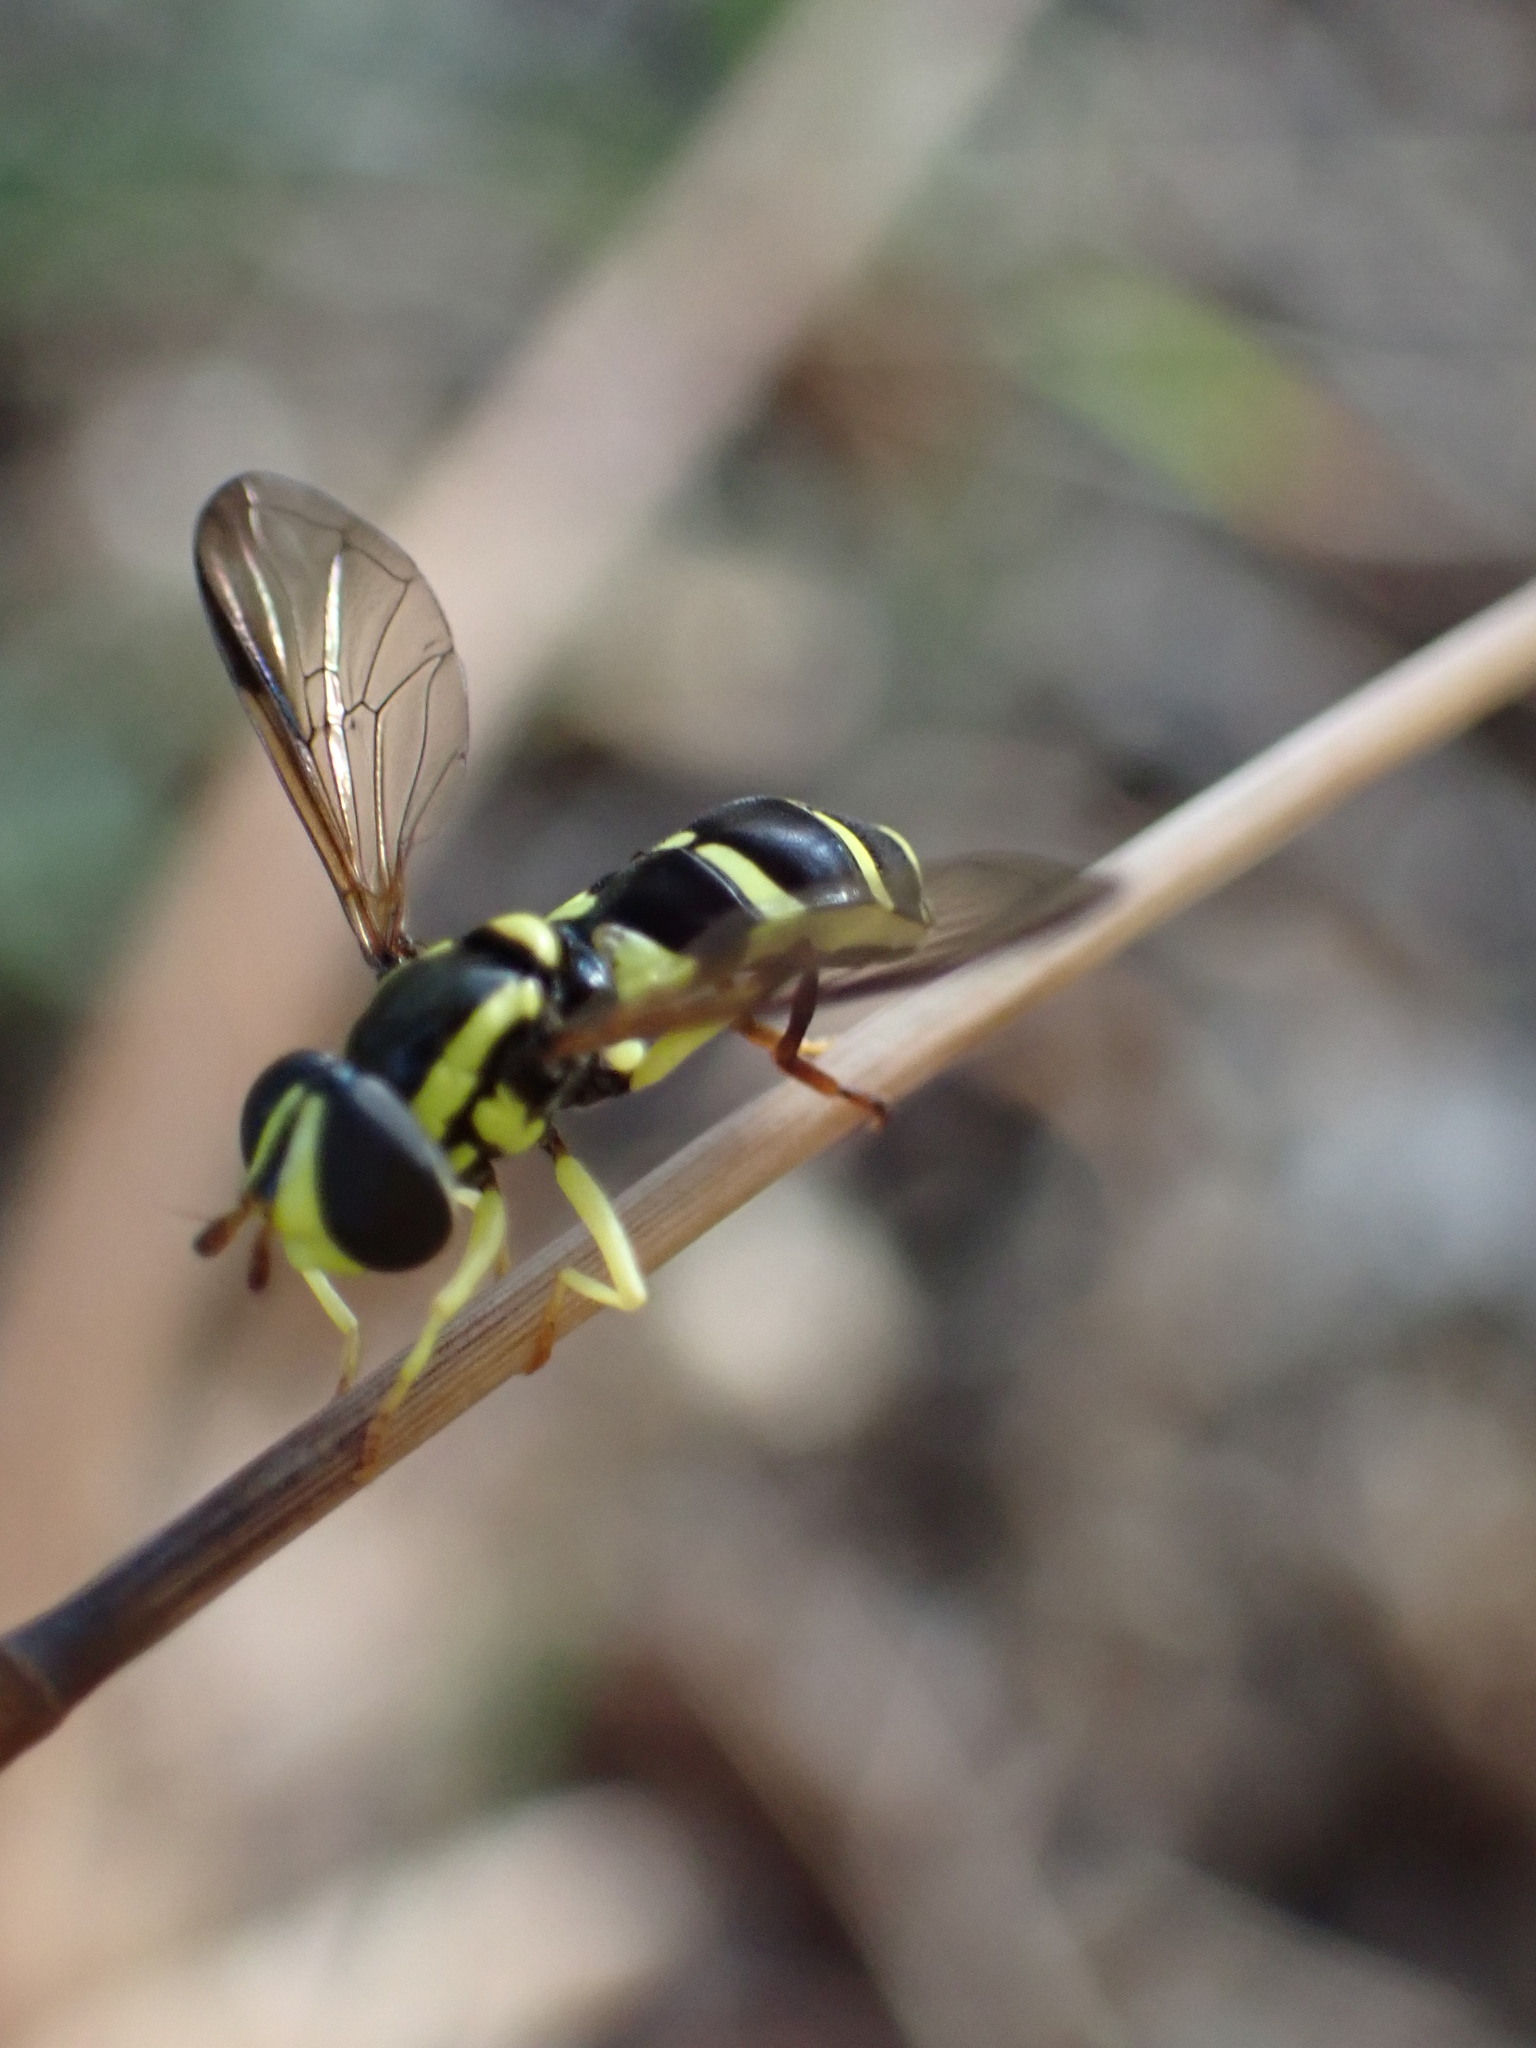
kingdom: Animalia
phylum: Arthropoda
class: Insecta
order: Diptera
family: Syrphidae
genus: Philhelius
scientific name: Philhelius dives
